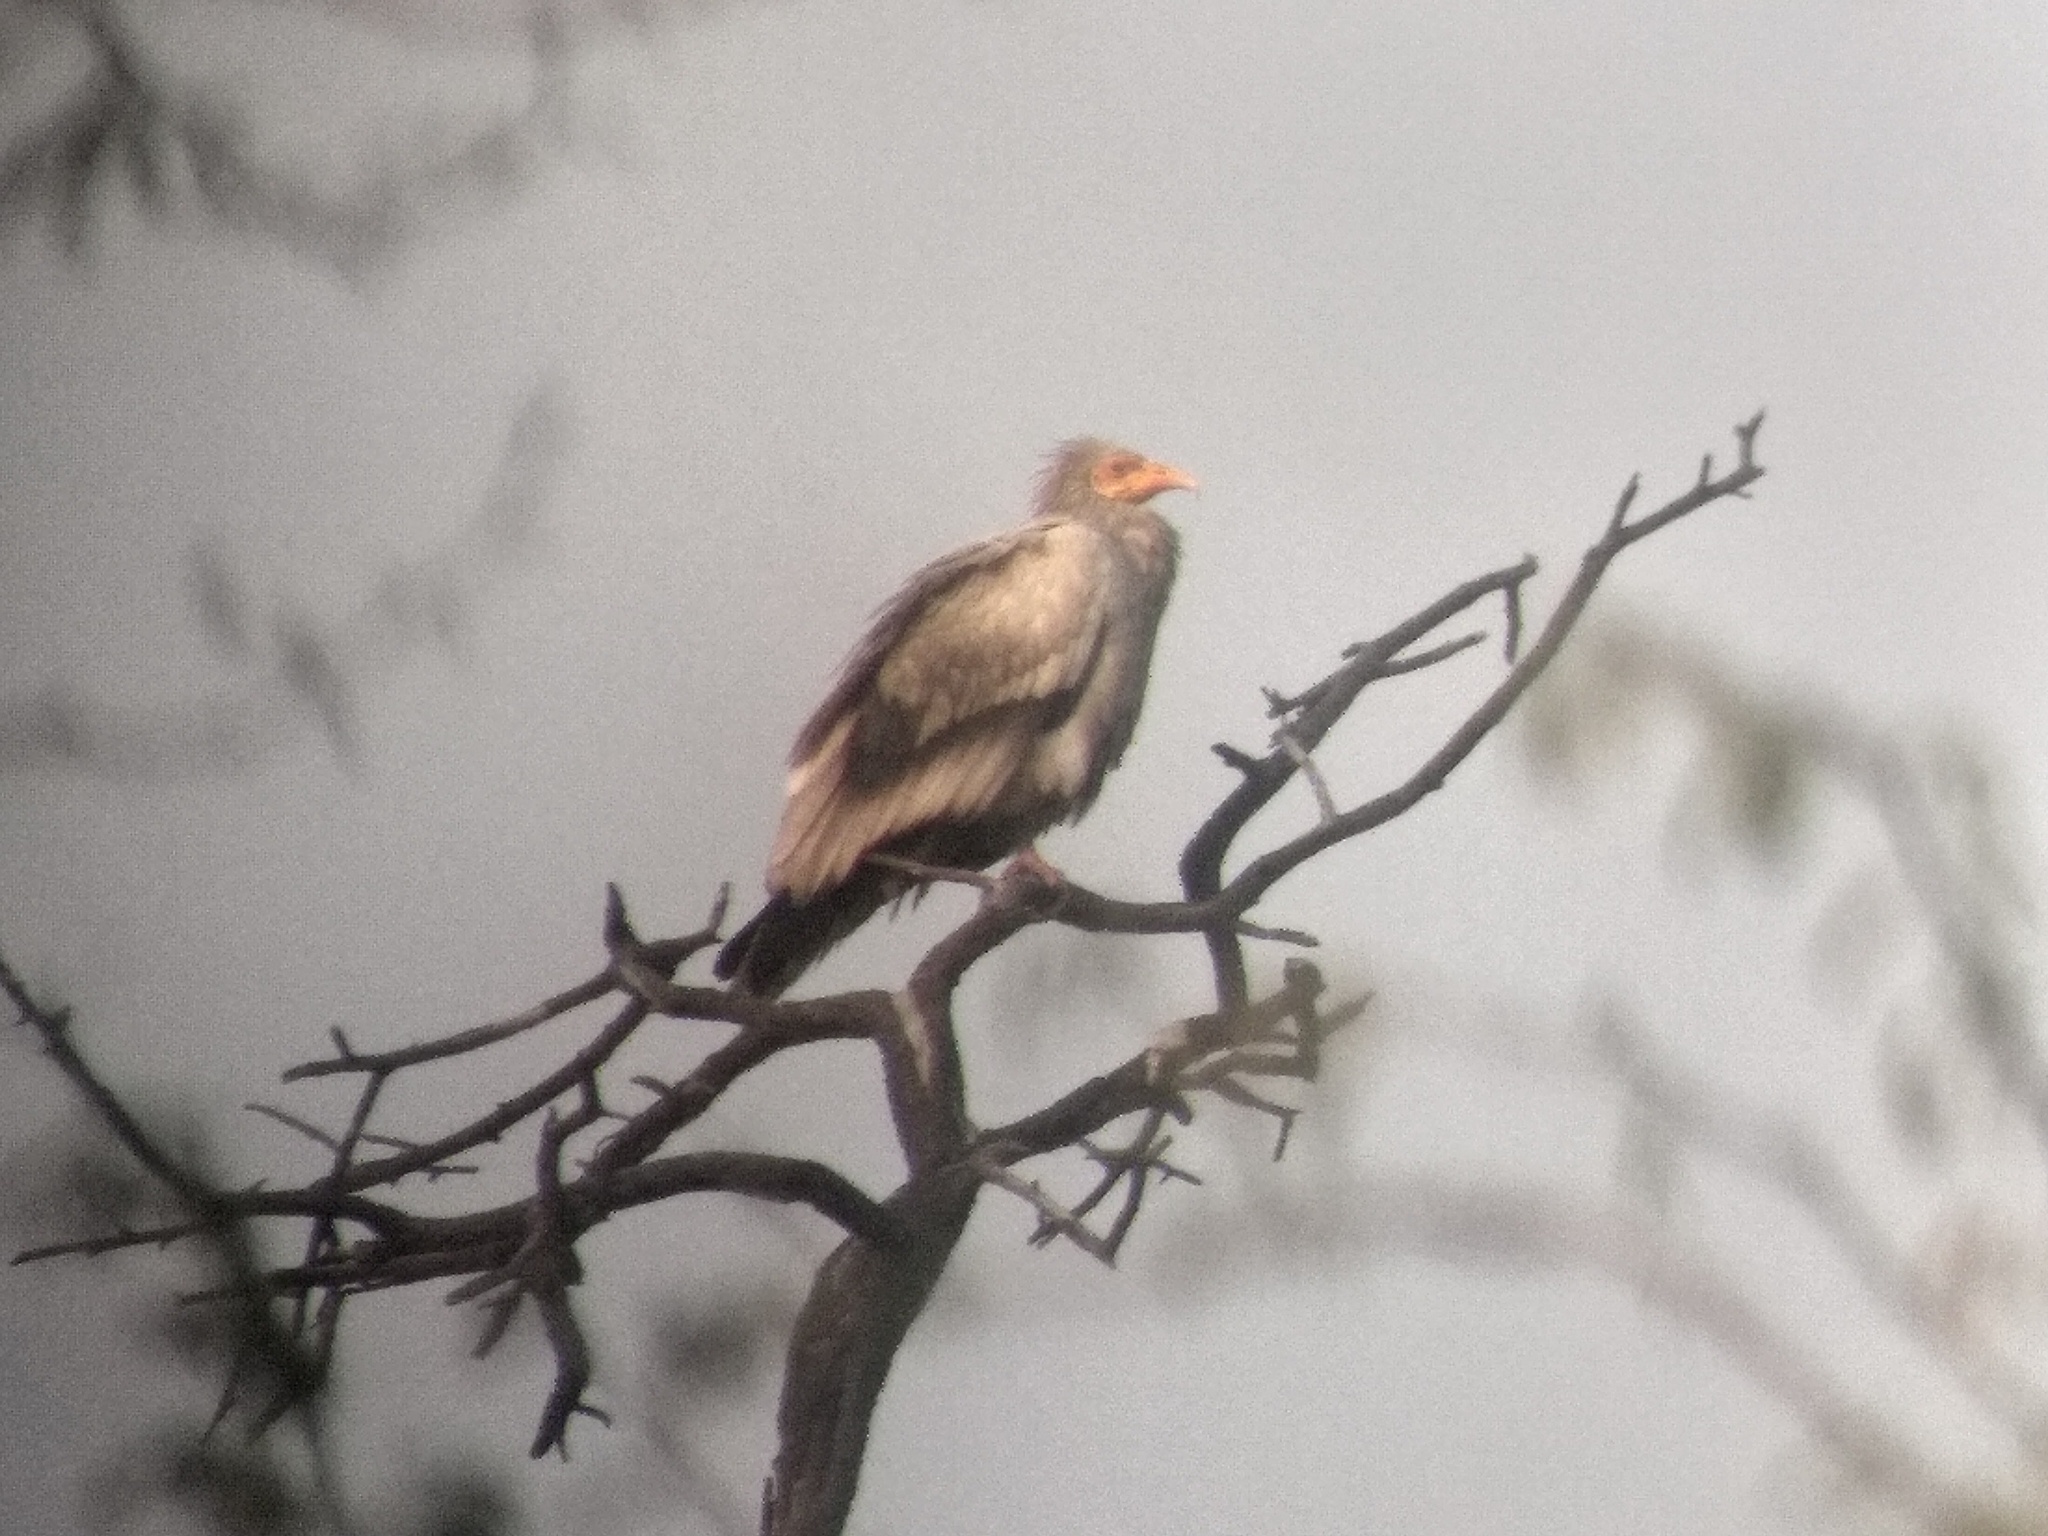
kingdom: Animalia
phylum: Chordata
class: Aves
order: Accipitriformes
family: Accipitridae
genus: Neophron
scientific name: Neophron percnopterus
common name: Egyptian vulture
